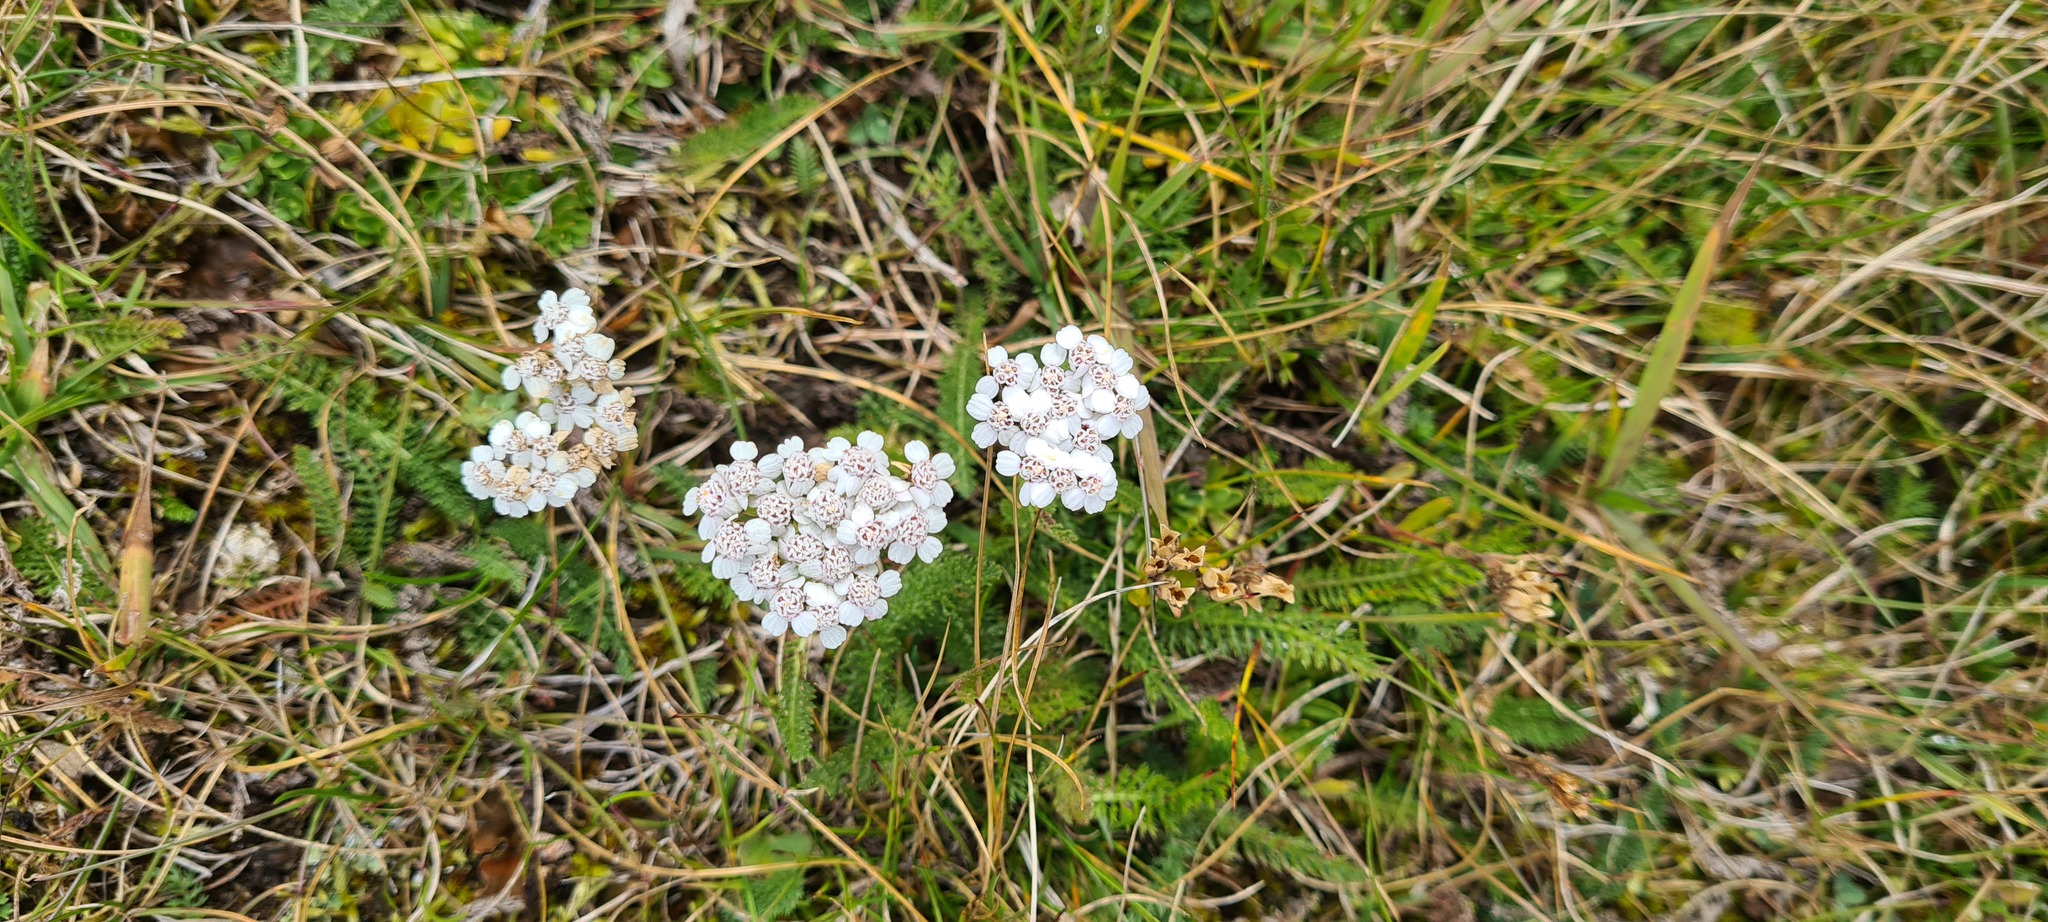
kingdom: Plantae
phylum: Tracheophyta
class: Magnoliopsida
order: Asterales
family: Asteraceae
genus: Achillea
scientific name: Achillea millefolium
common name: Yarrow
